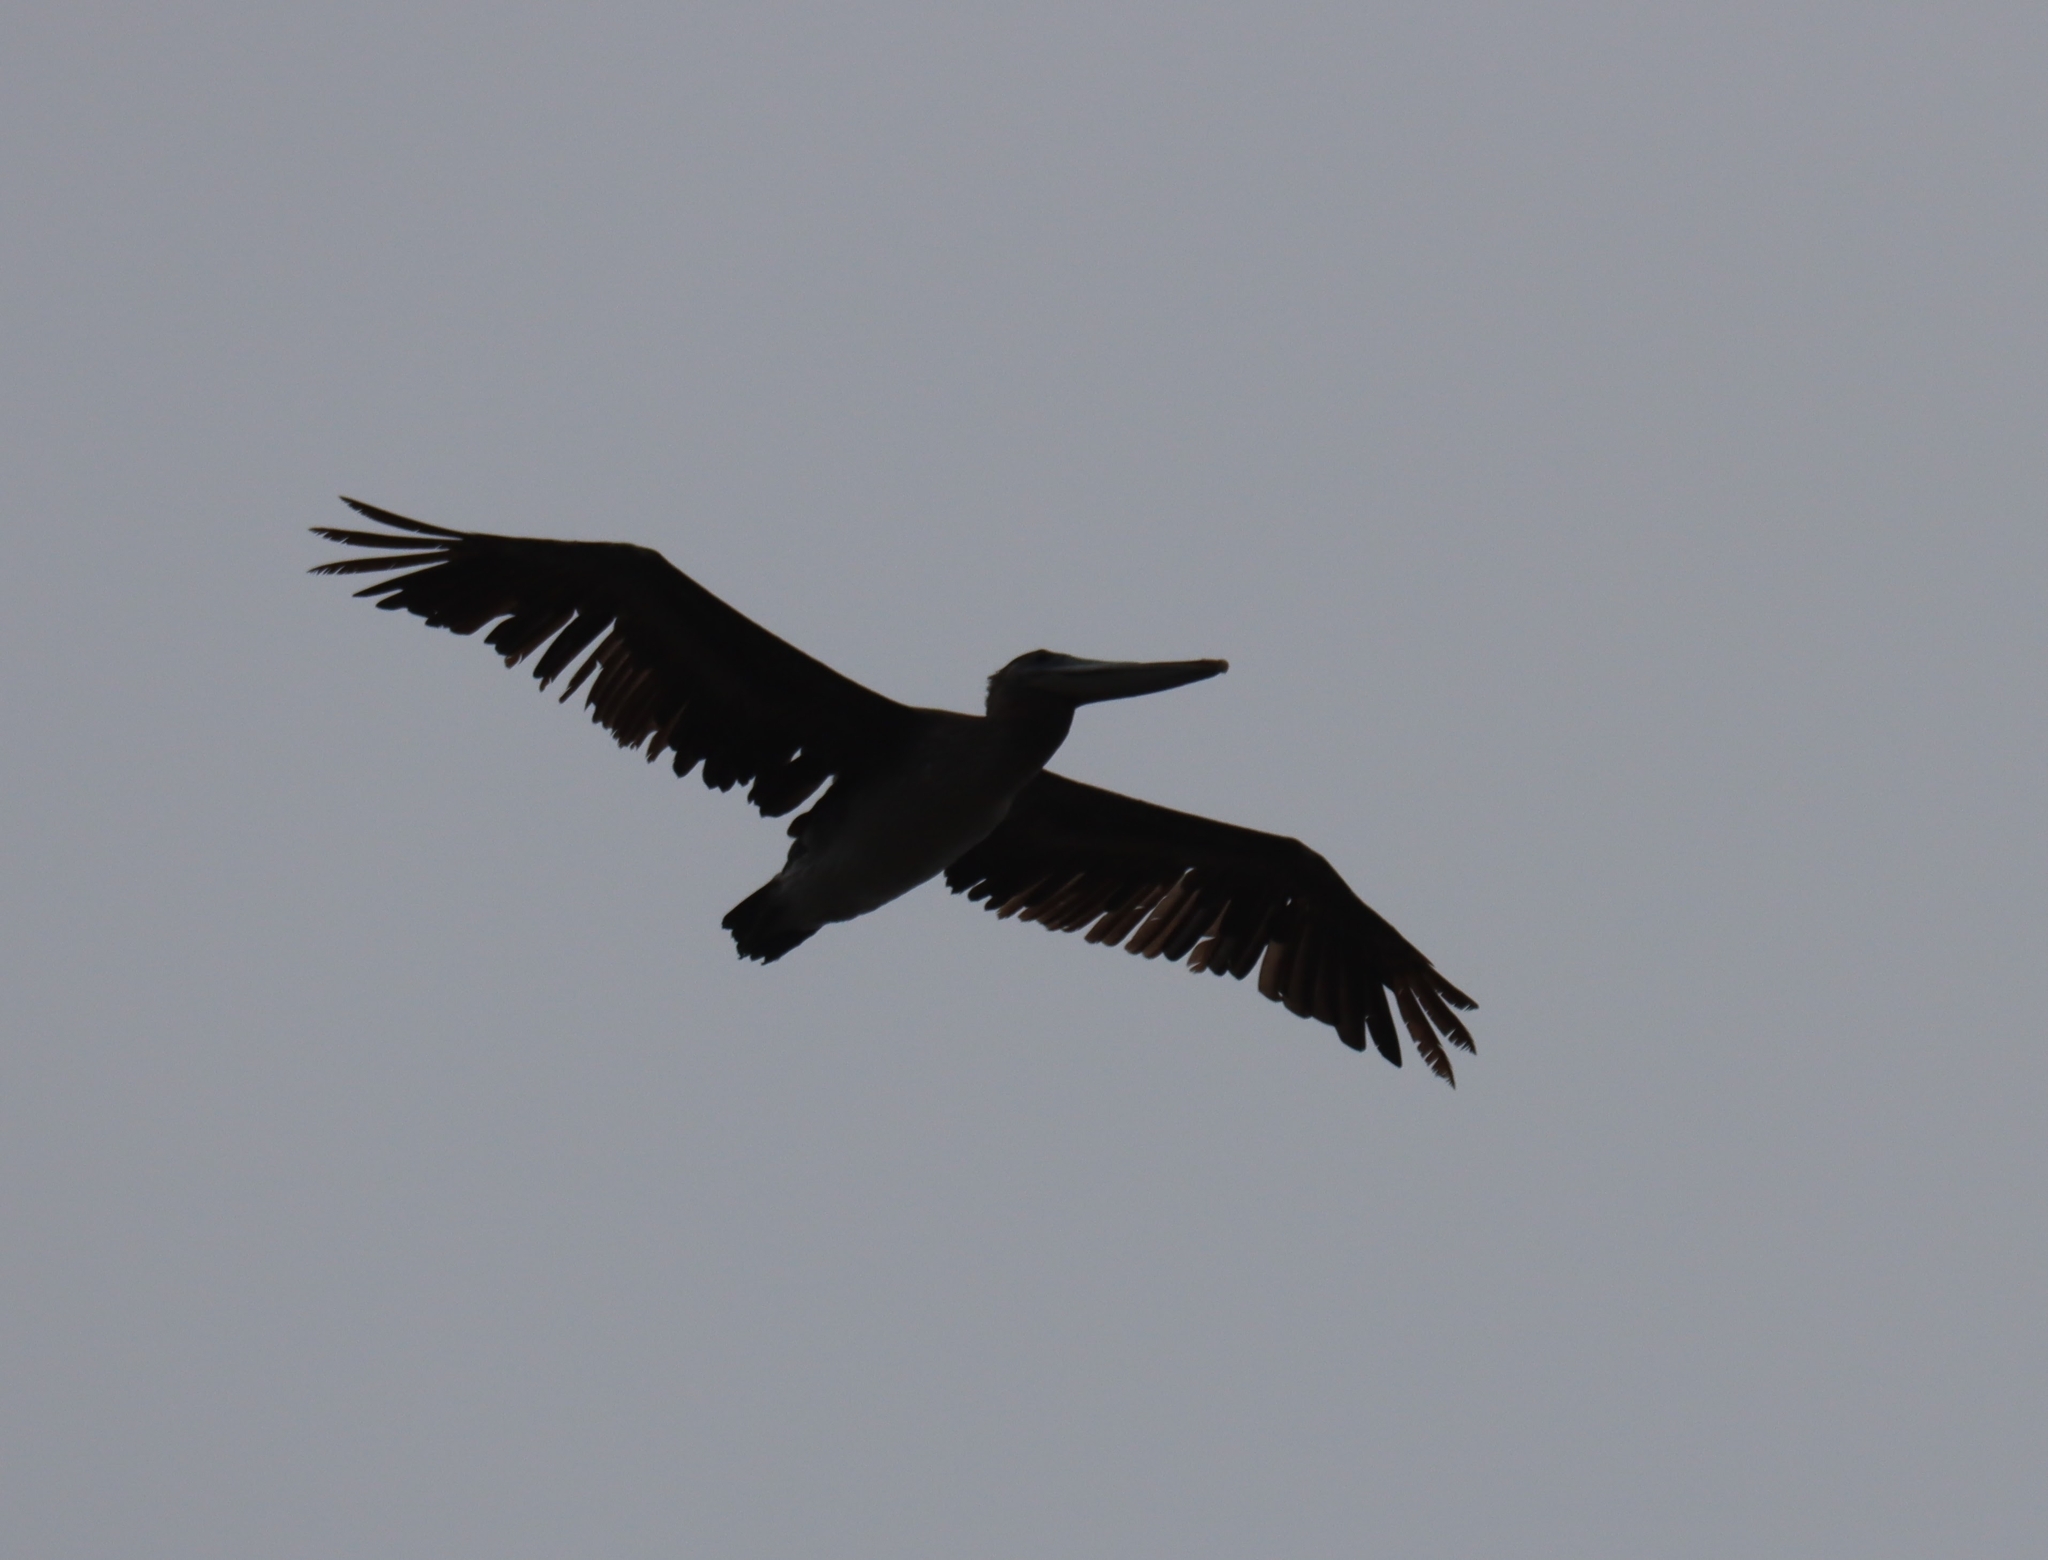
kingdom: Animalia
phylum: Chordata
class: Aves
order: Pelecaniformes
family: Pelecanidae
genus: Pelecanus
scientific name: Pelecanus occidentalis
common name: Brown pelican
